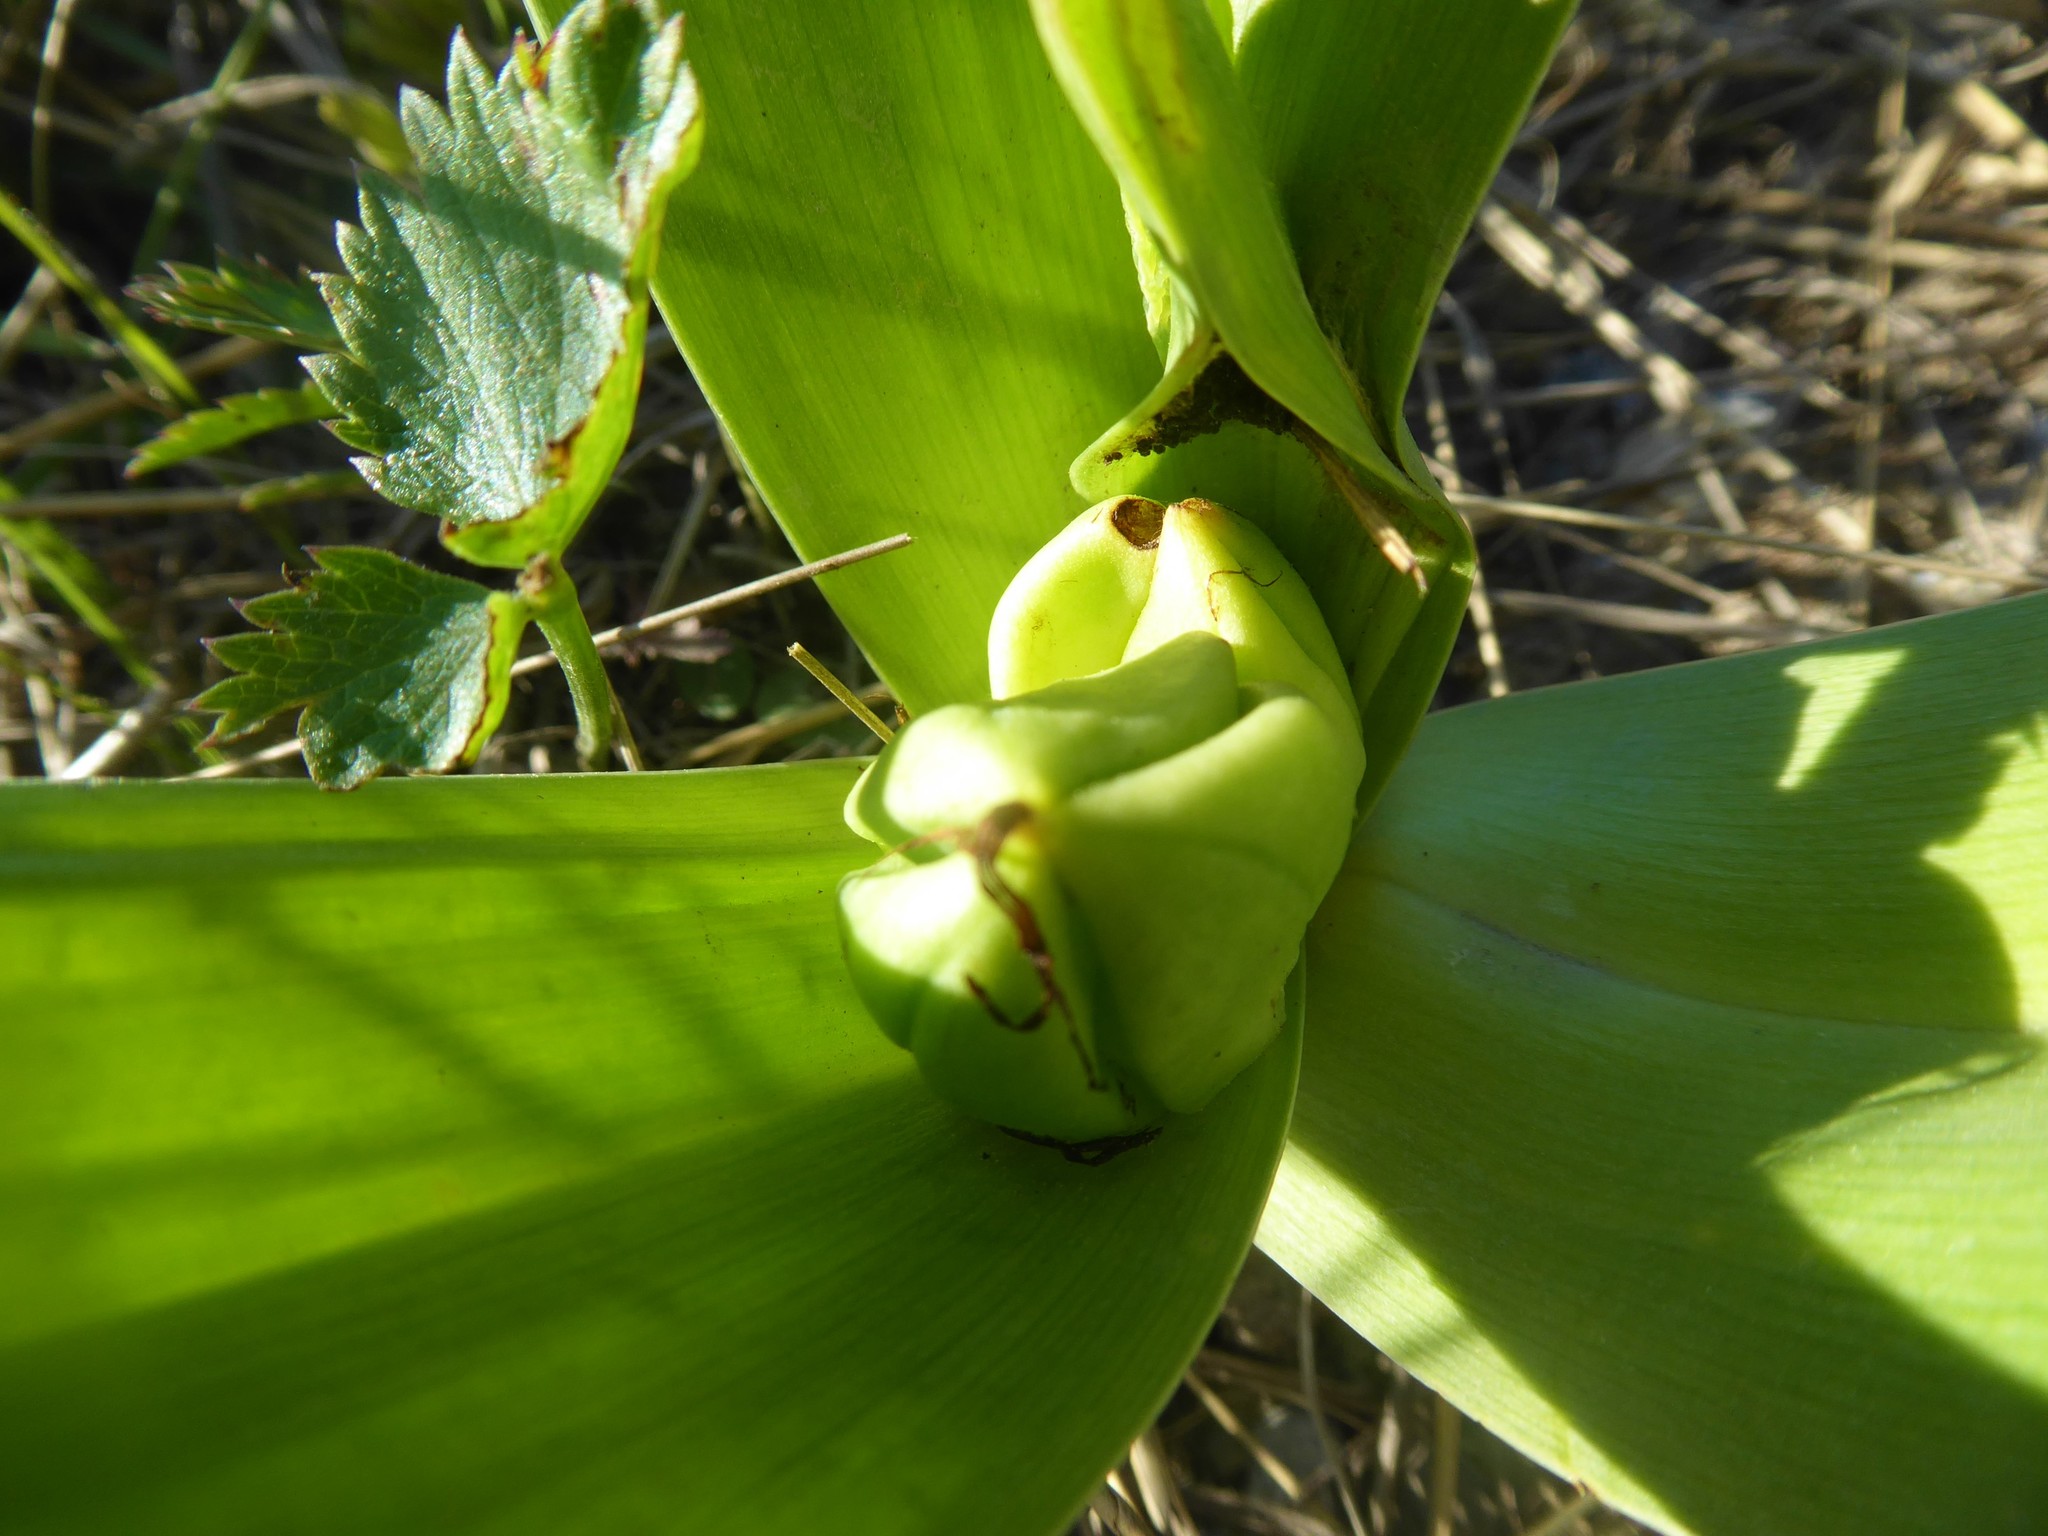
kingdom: Plantae
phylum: Tracheophyta
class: Liliopsida
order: Liliales
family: Colchicaceae
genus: Colchicum
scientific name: Colchicum autumnale
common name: Autumn crocus
